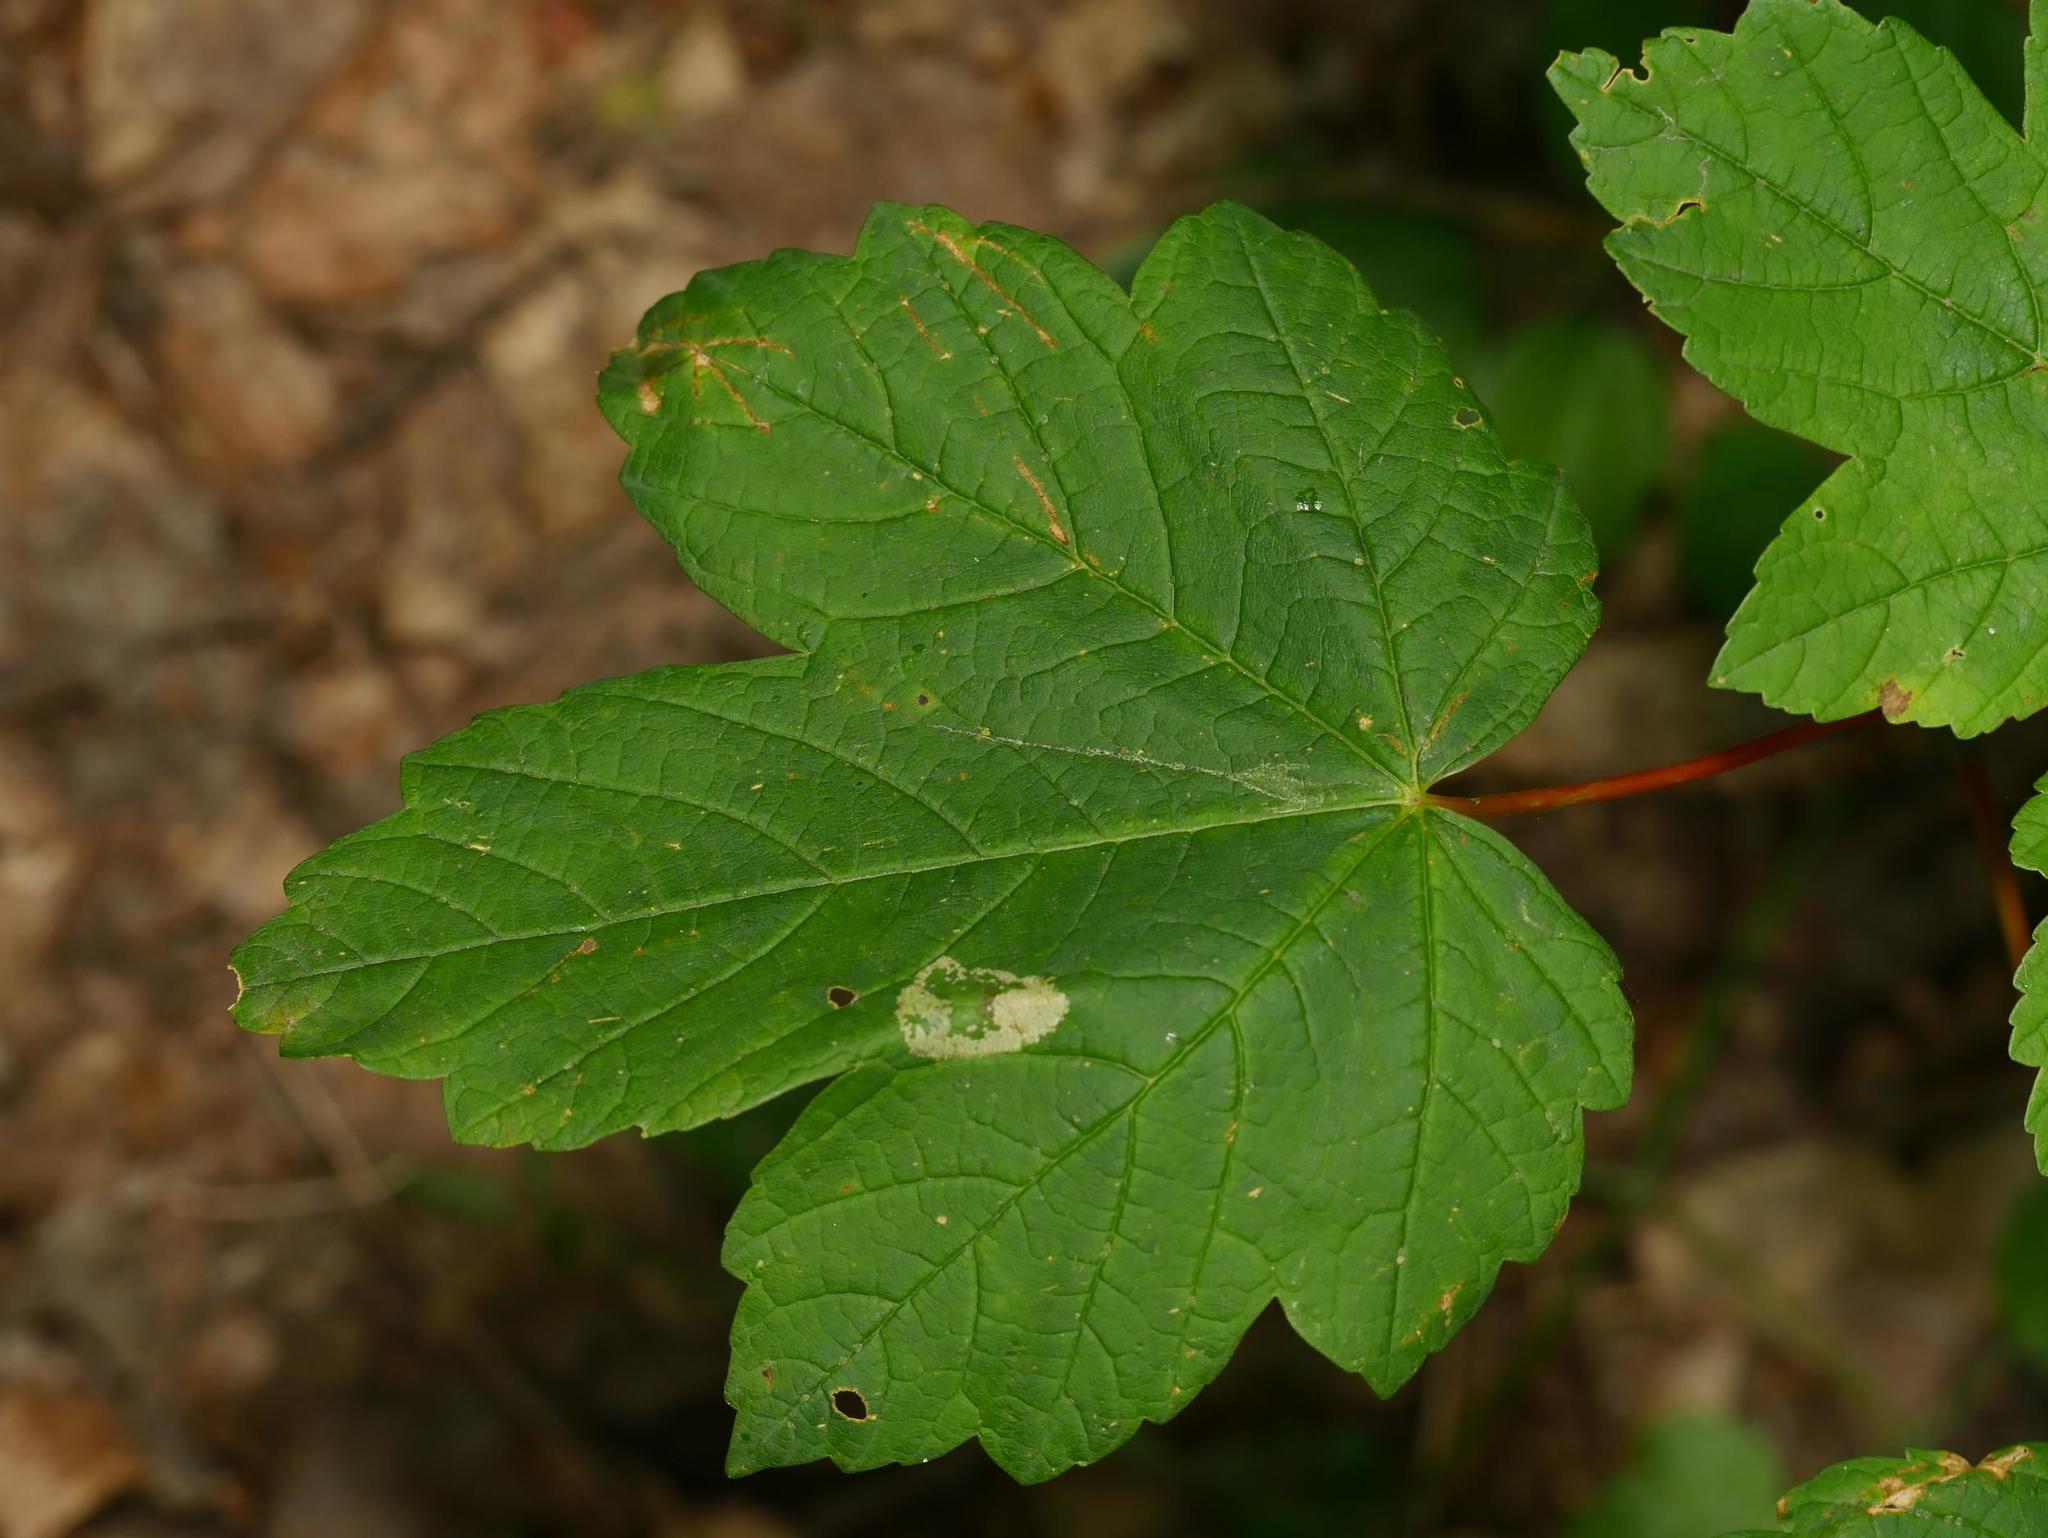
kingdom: Plantae
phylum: Tracheophyta
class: Magnoliopsida
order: Sapindales
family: Sapindaceae
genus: Acer
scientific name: Acer pseudoplatanus
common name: Sycamore
